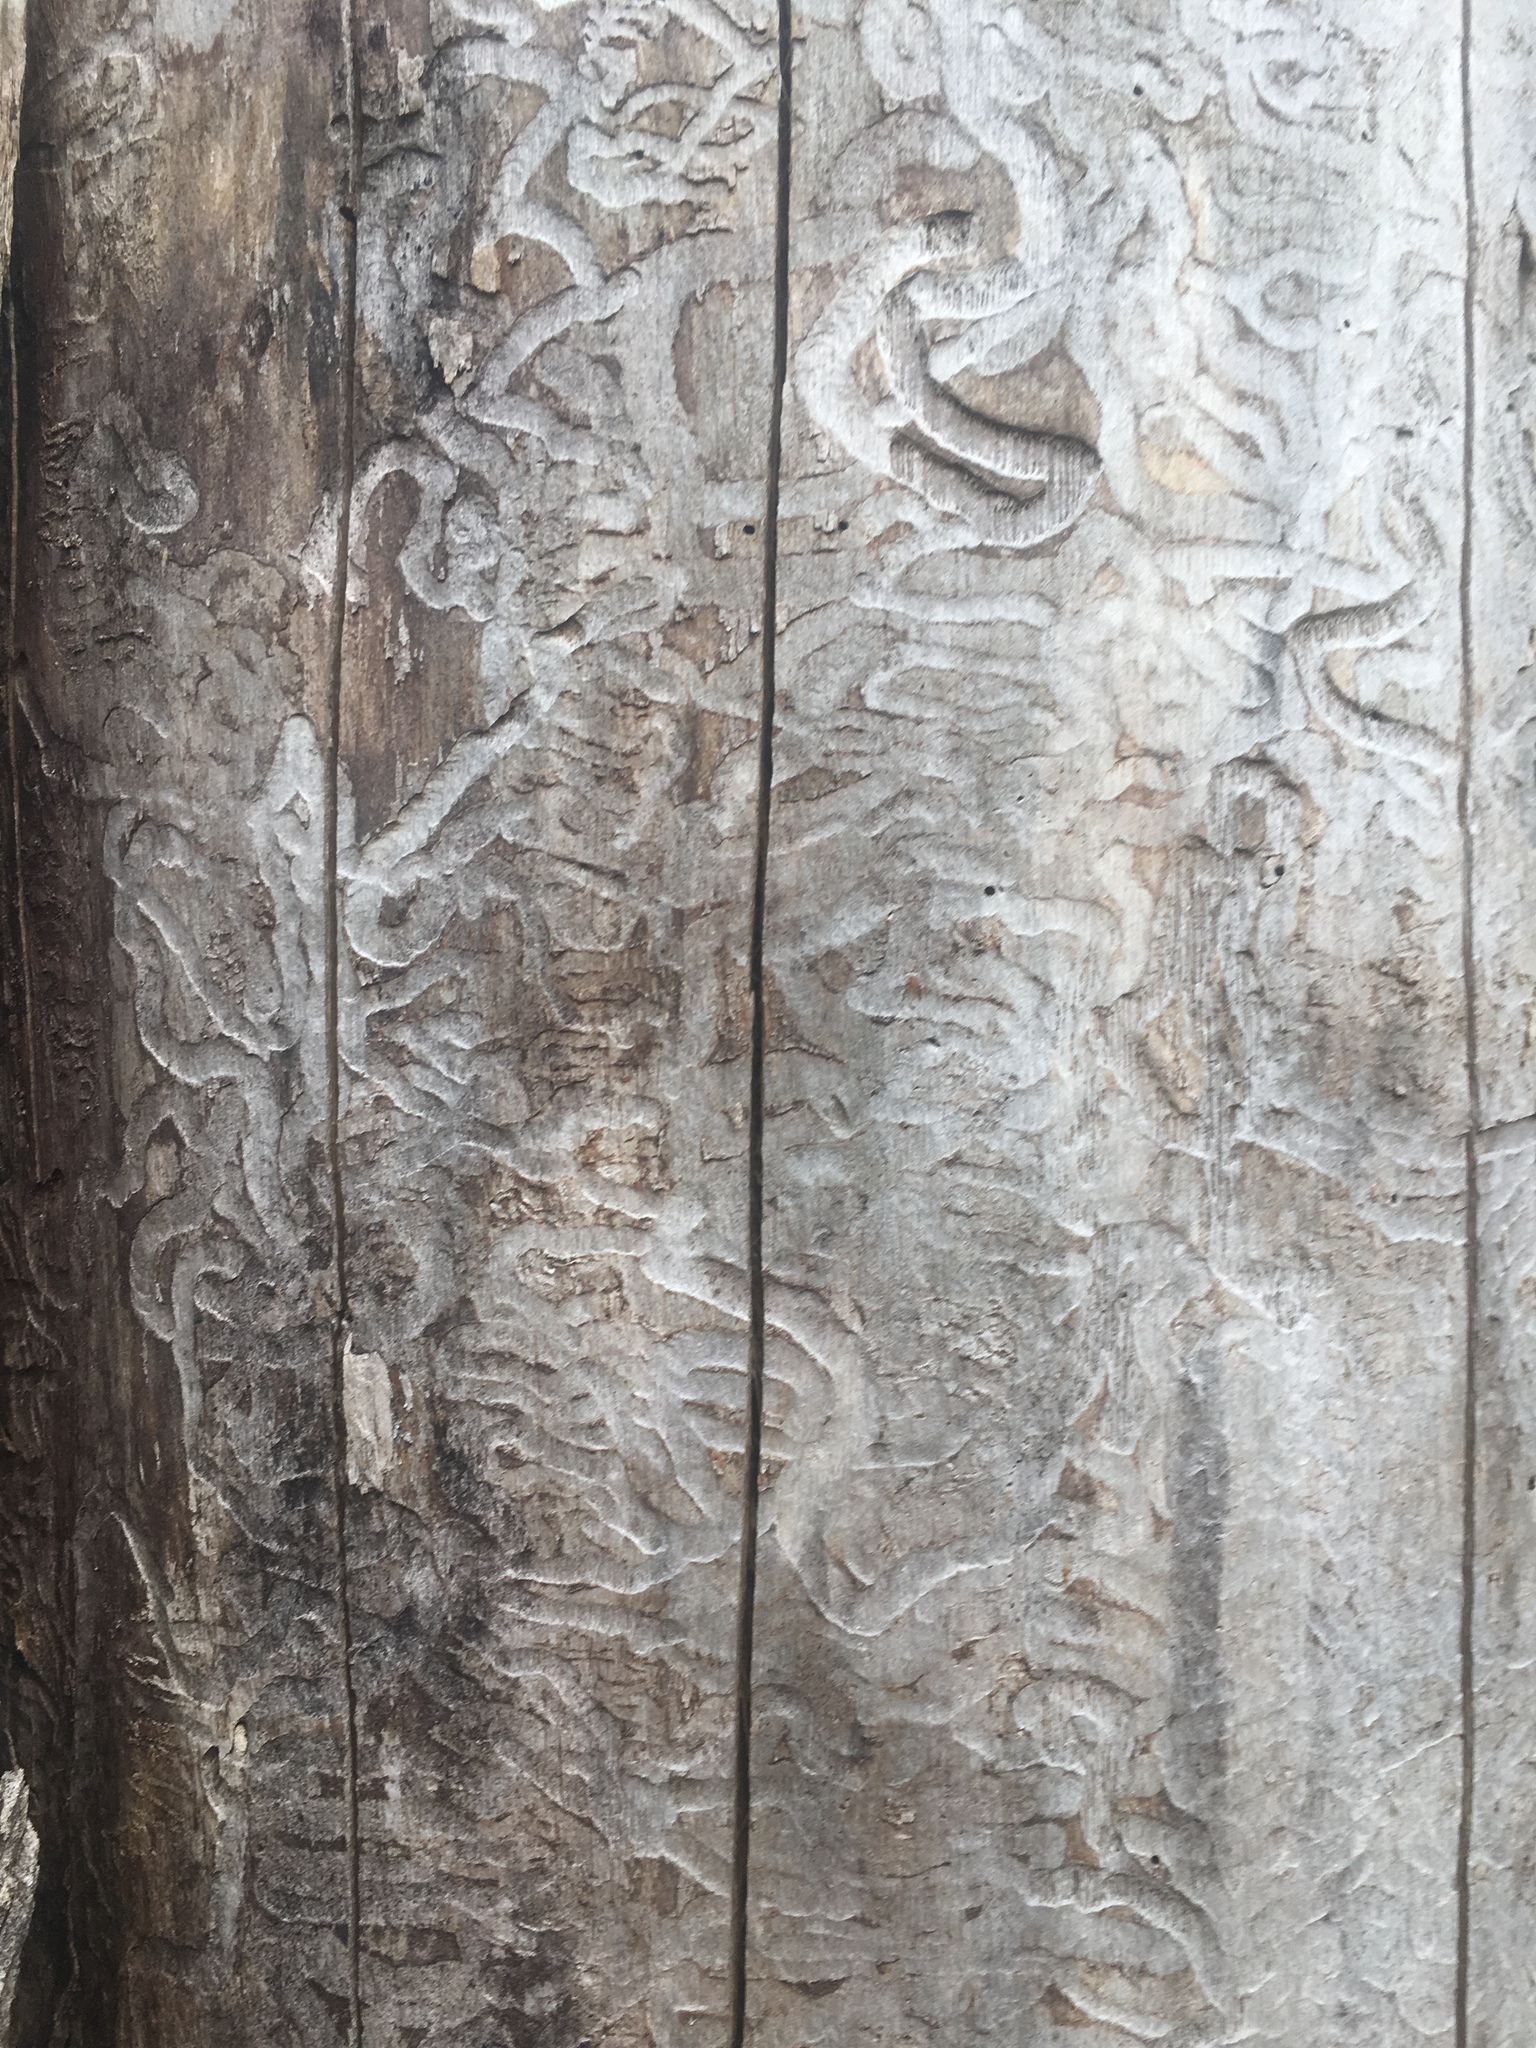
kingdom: Animalia
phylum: Arthropoda
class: Insecta
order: Coleoptera
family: Buprestidae
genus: Agrilus
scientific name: Agrilus planipennis
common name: Emerald ash borer
